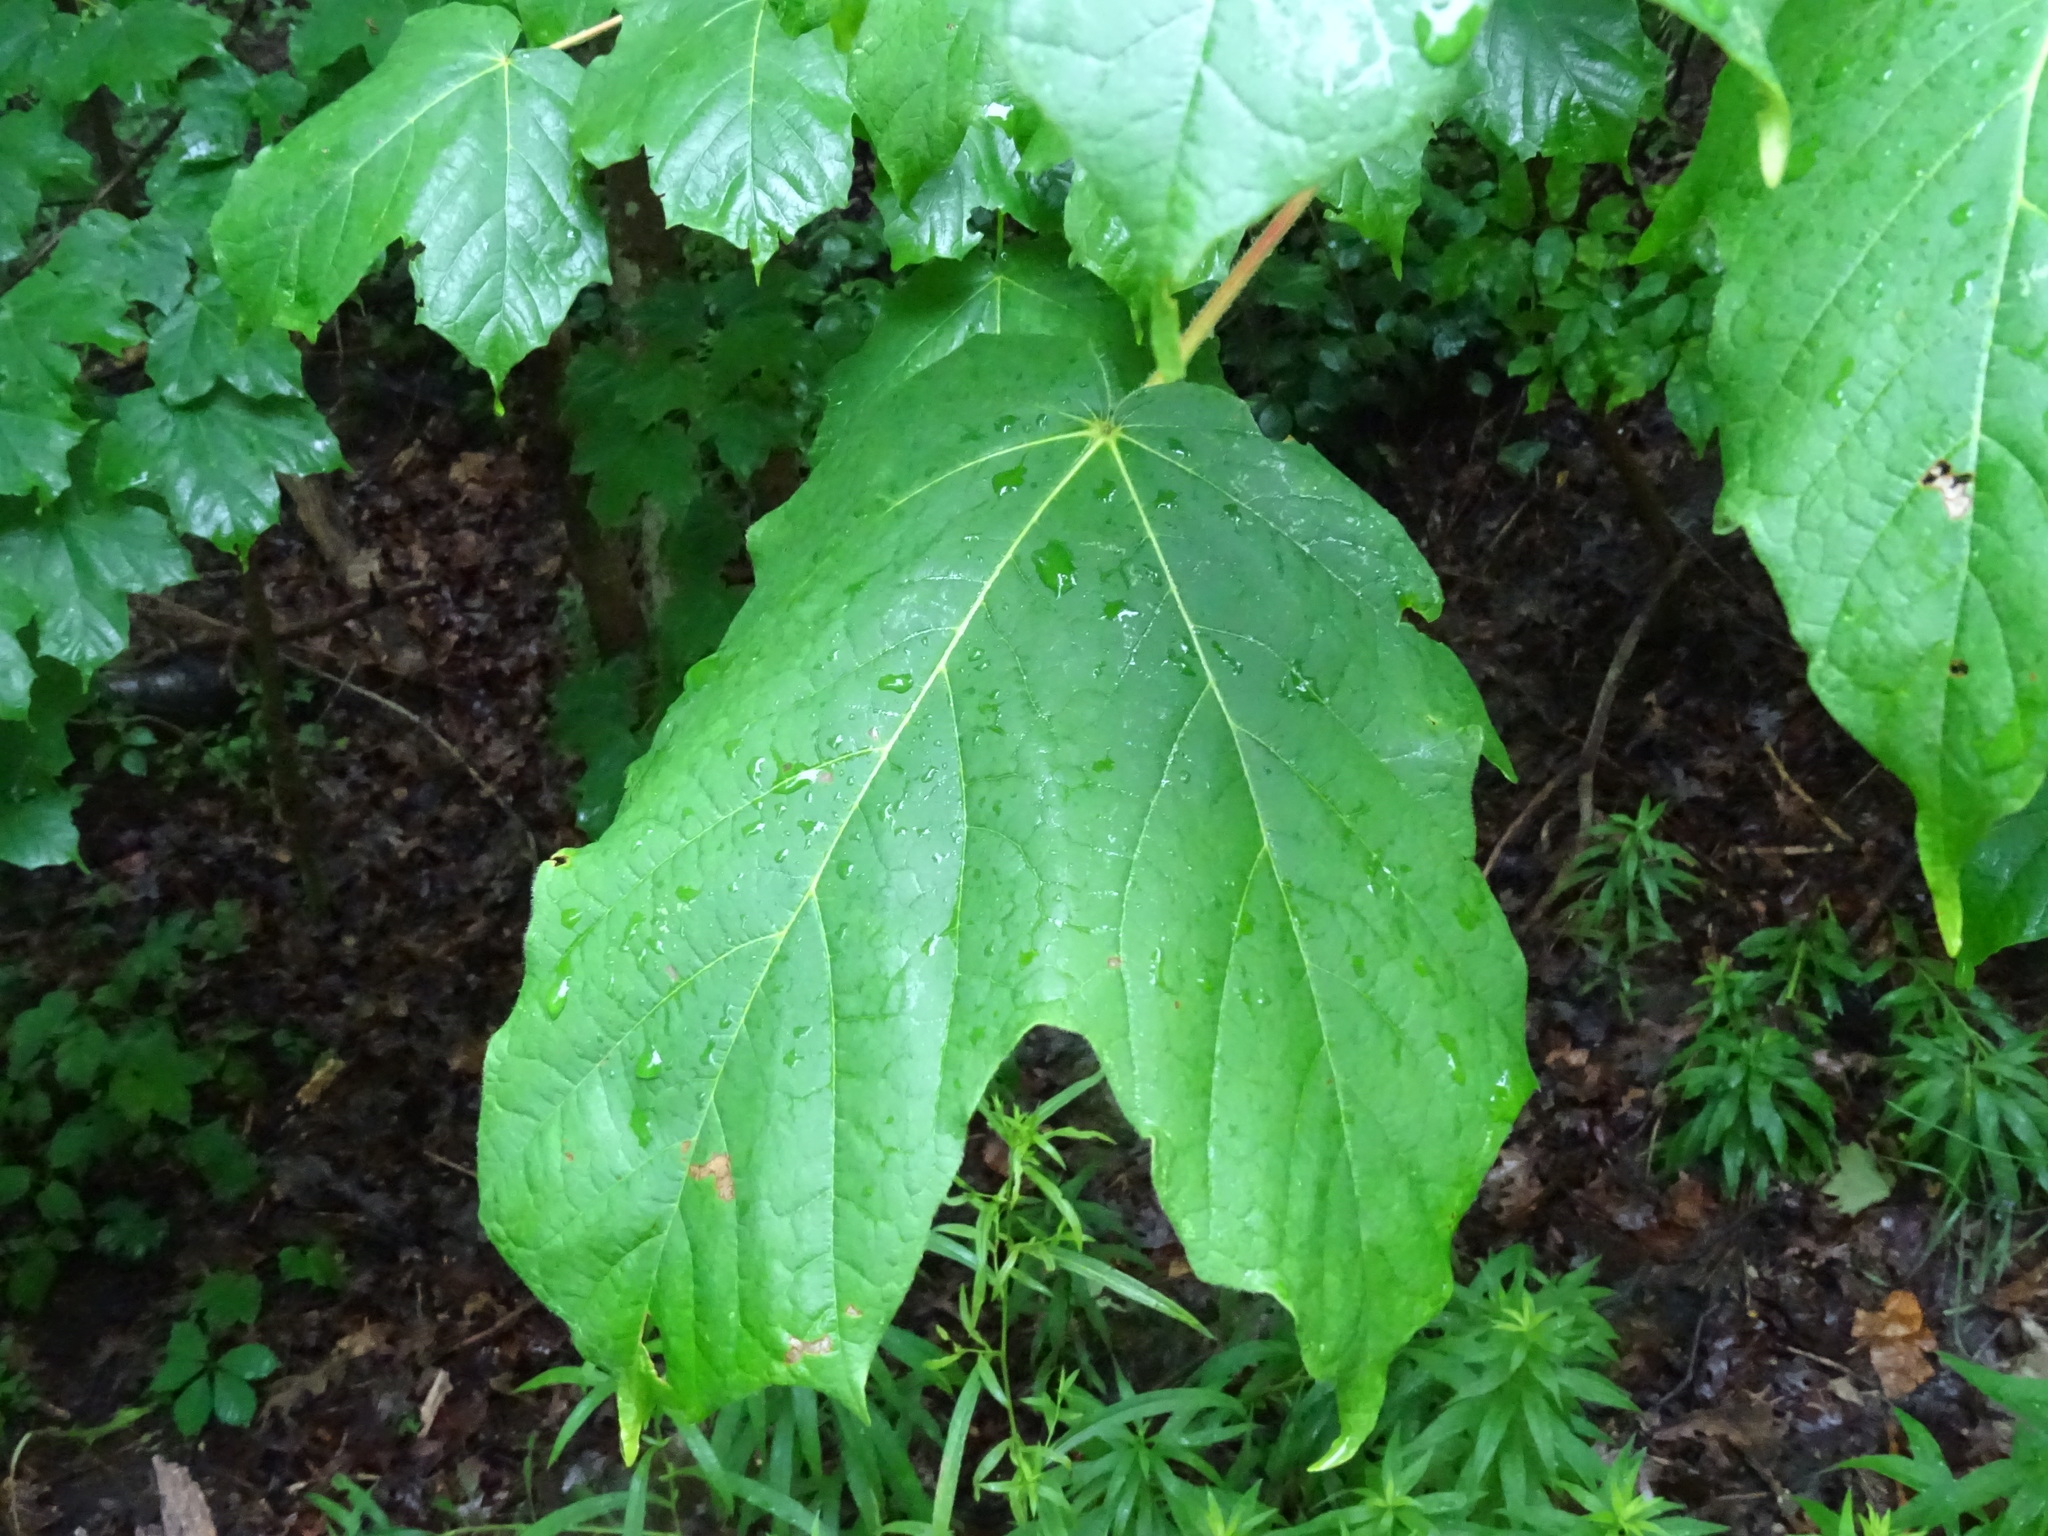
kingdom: Plantae
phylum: Tracheophyta
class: Magnoliopsida
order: Sapindales
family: Sapindaceae
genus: Acer
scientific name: Acer nigrum
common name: Black maple
